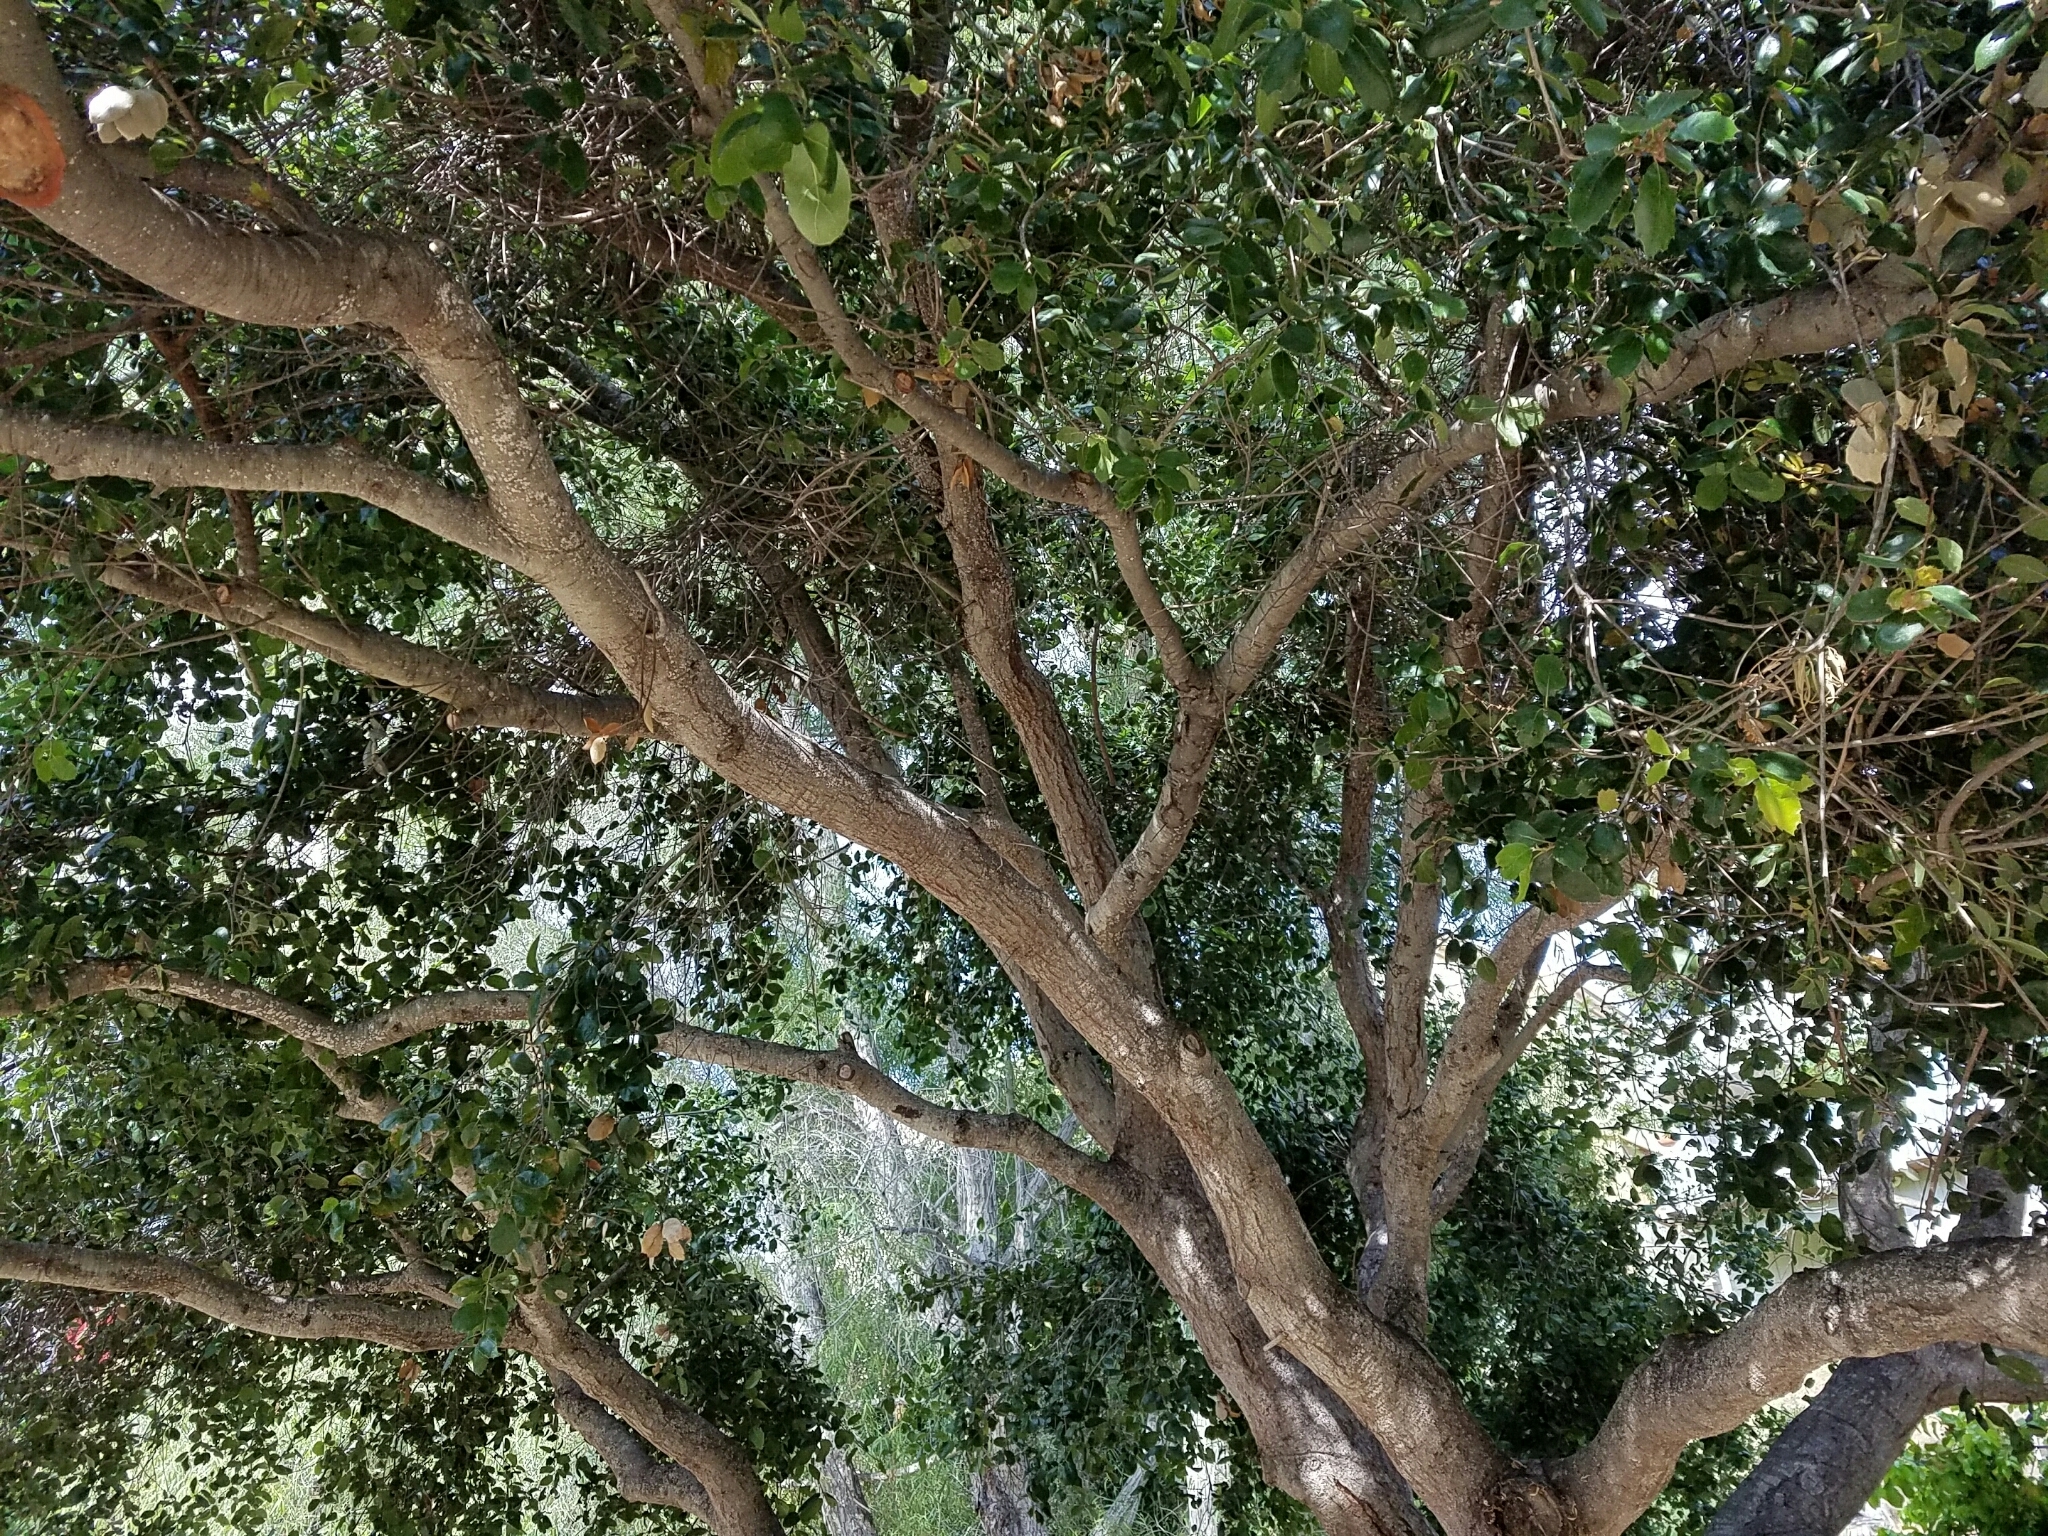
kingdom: Plantae
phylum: Tracheophyta
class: Magnoliopsida
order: Fagales
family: Fagaceae
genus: Quercus
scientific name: Quercus agrifolia
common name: California live oak
